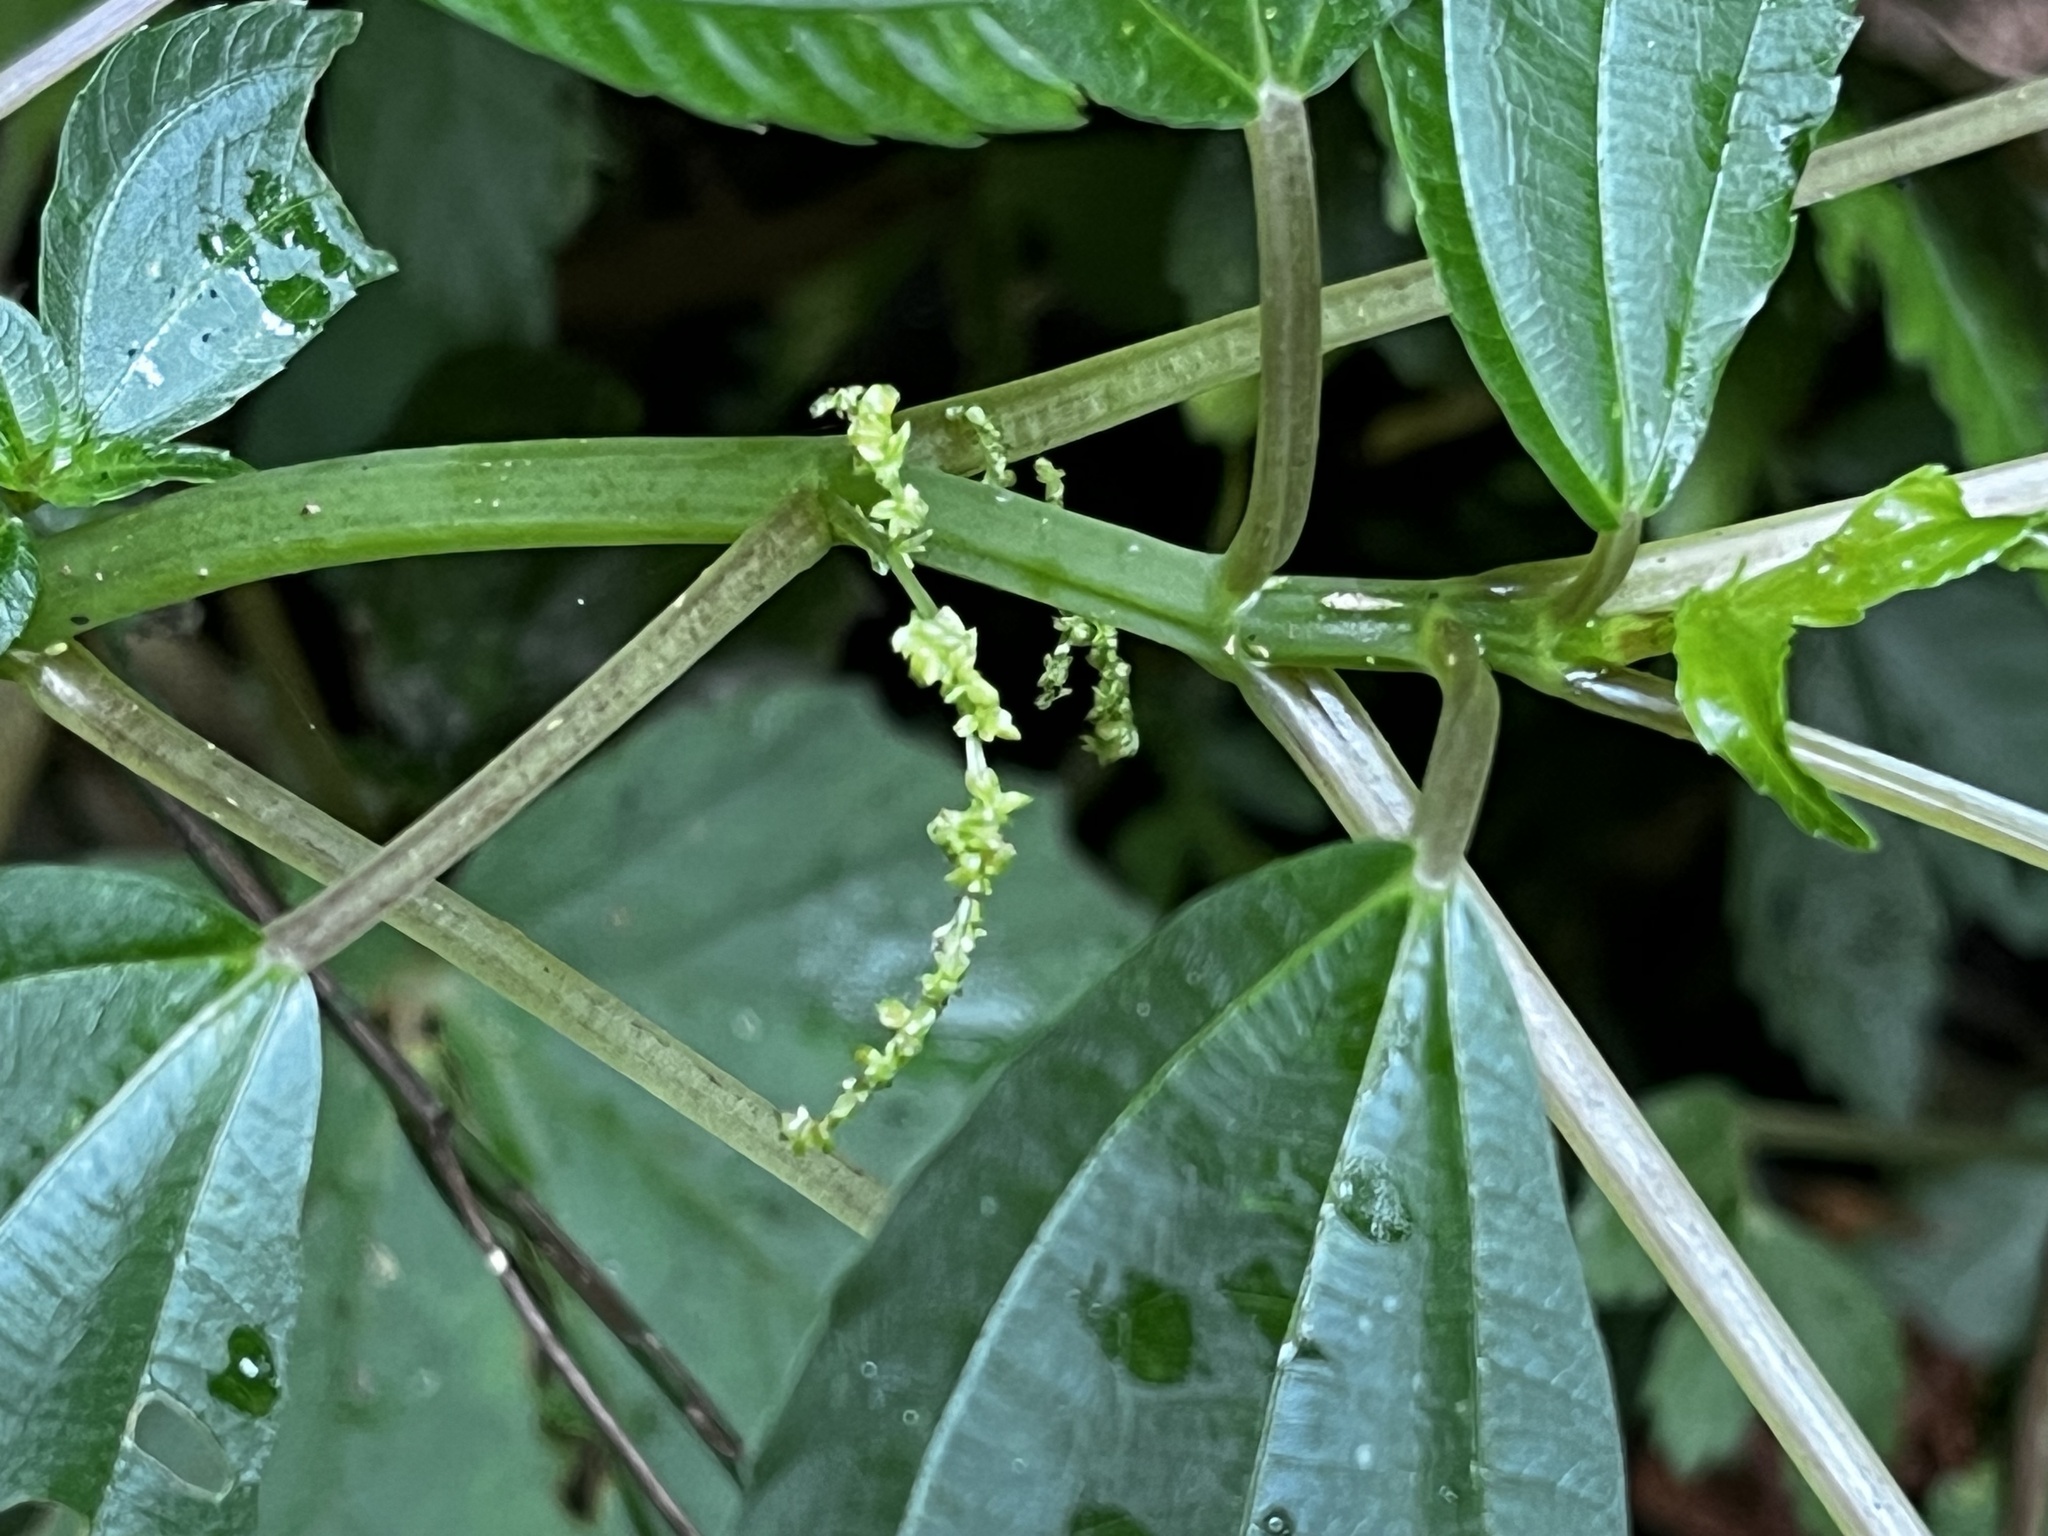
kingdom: Plantae
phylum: Tracheophyta
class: Magnoliopsida
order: Rosales
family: Urticaceae
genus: Pilea
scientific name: Pilea melastomoides
